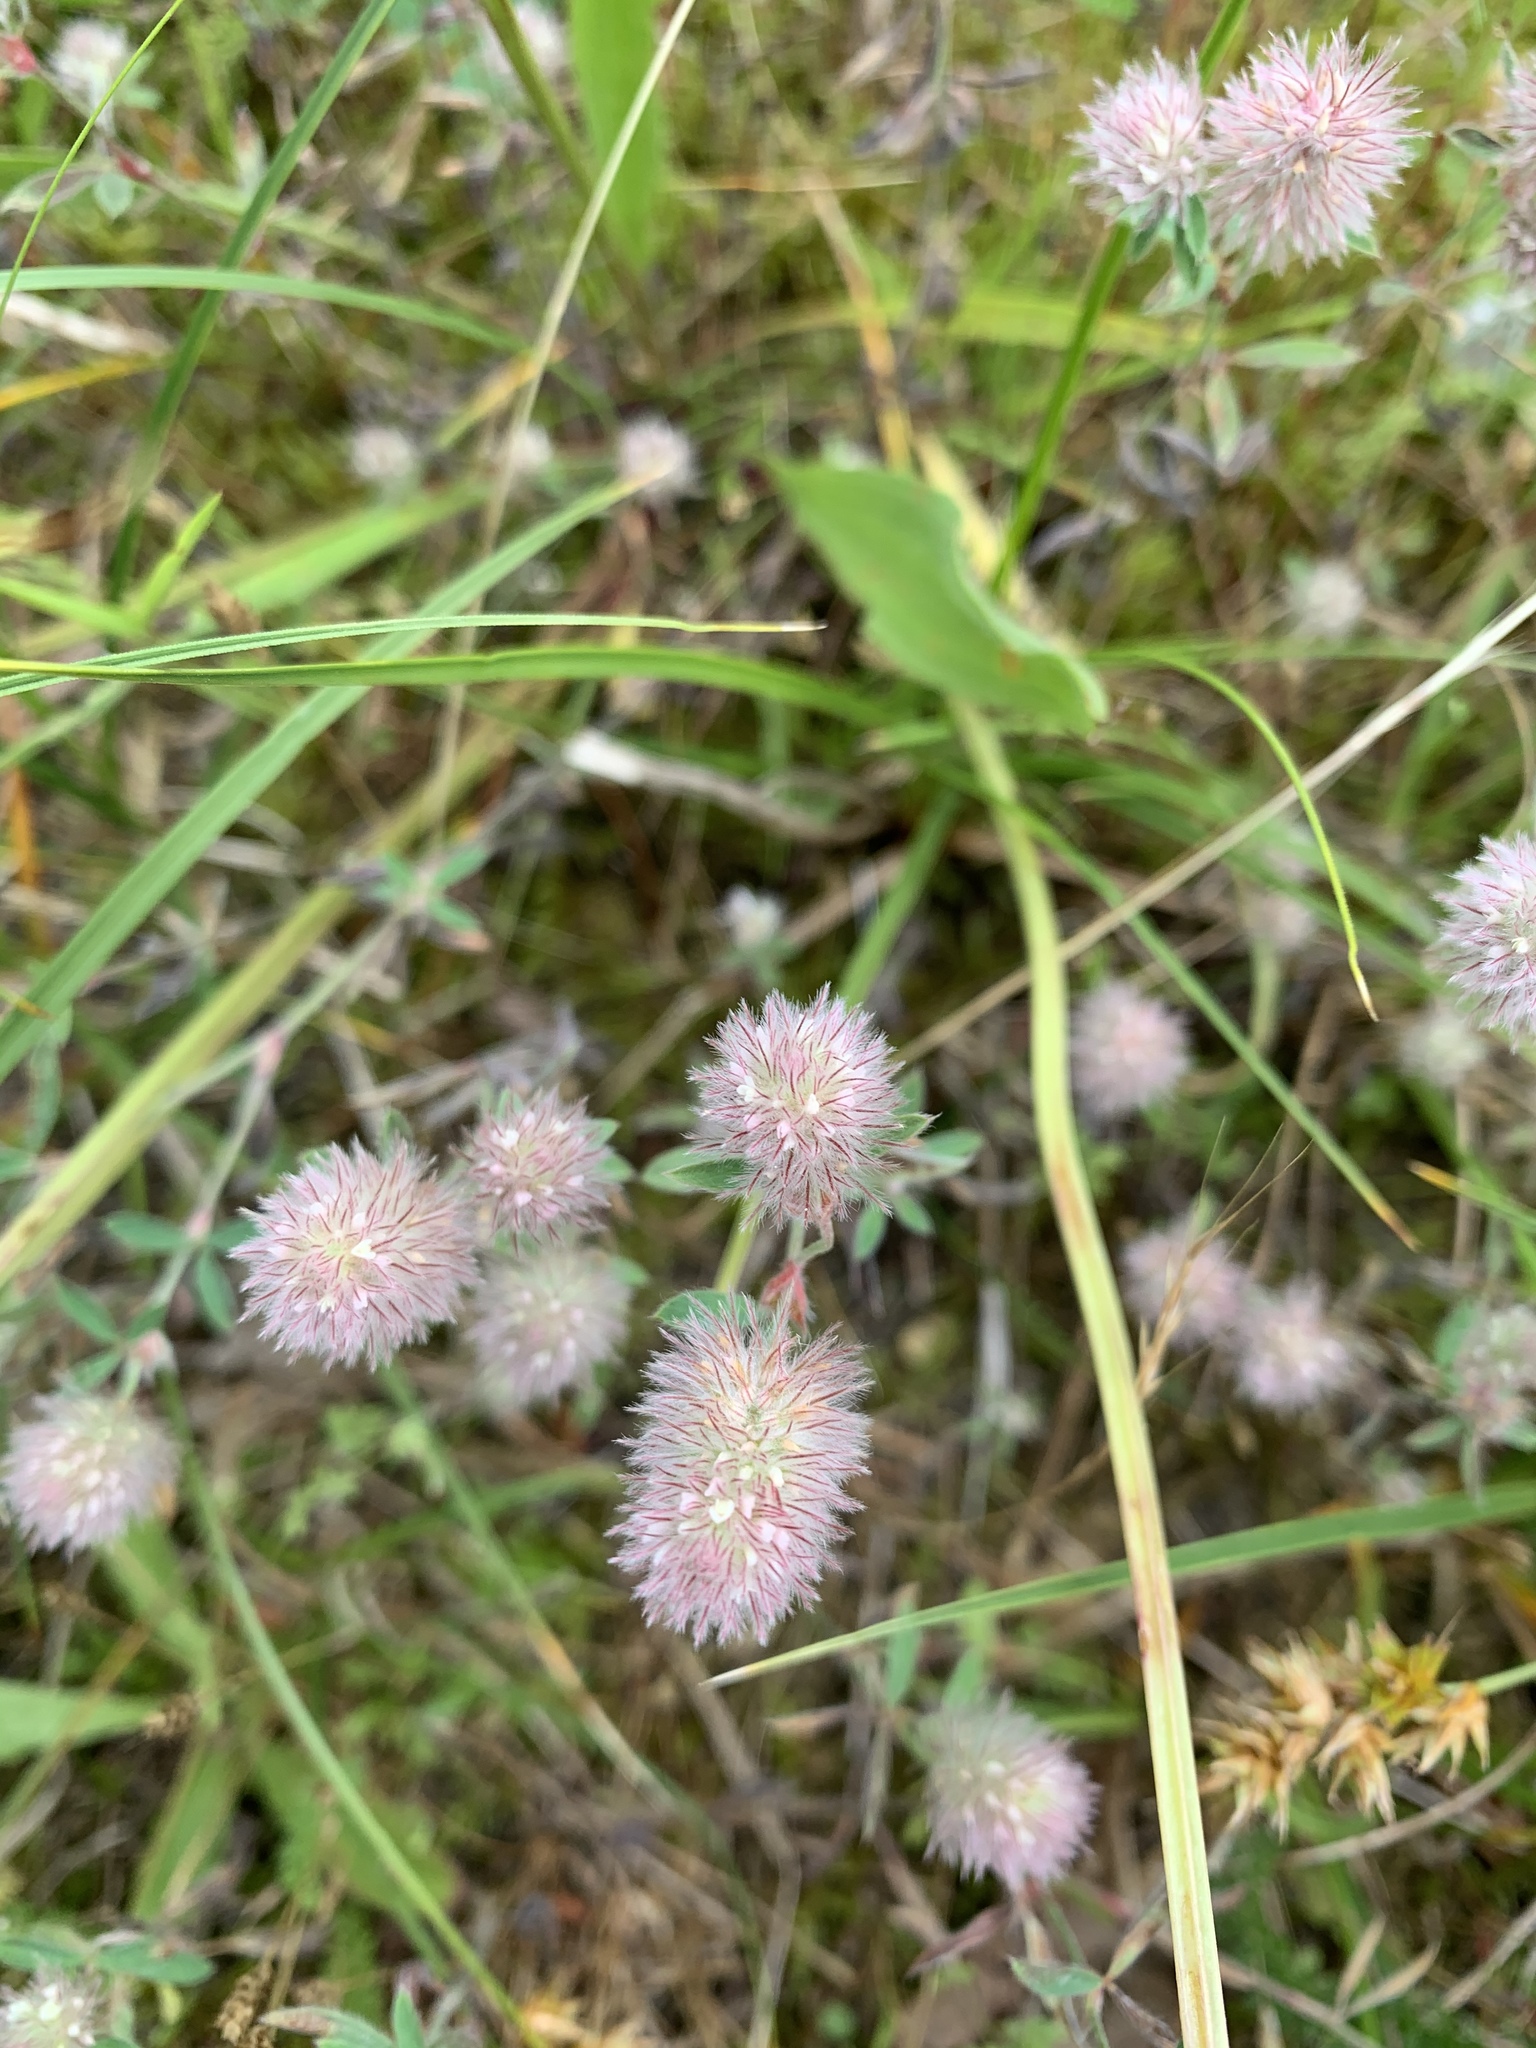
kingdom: Plantae
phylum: Tracheophyta
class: Magnoliopsida
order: Fabales
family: Fabaceae
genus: Trifolium
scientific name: Trifolium arvense
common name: Hare's-foot clover
